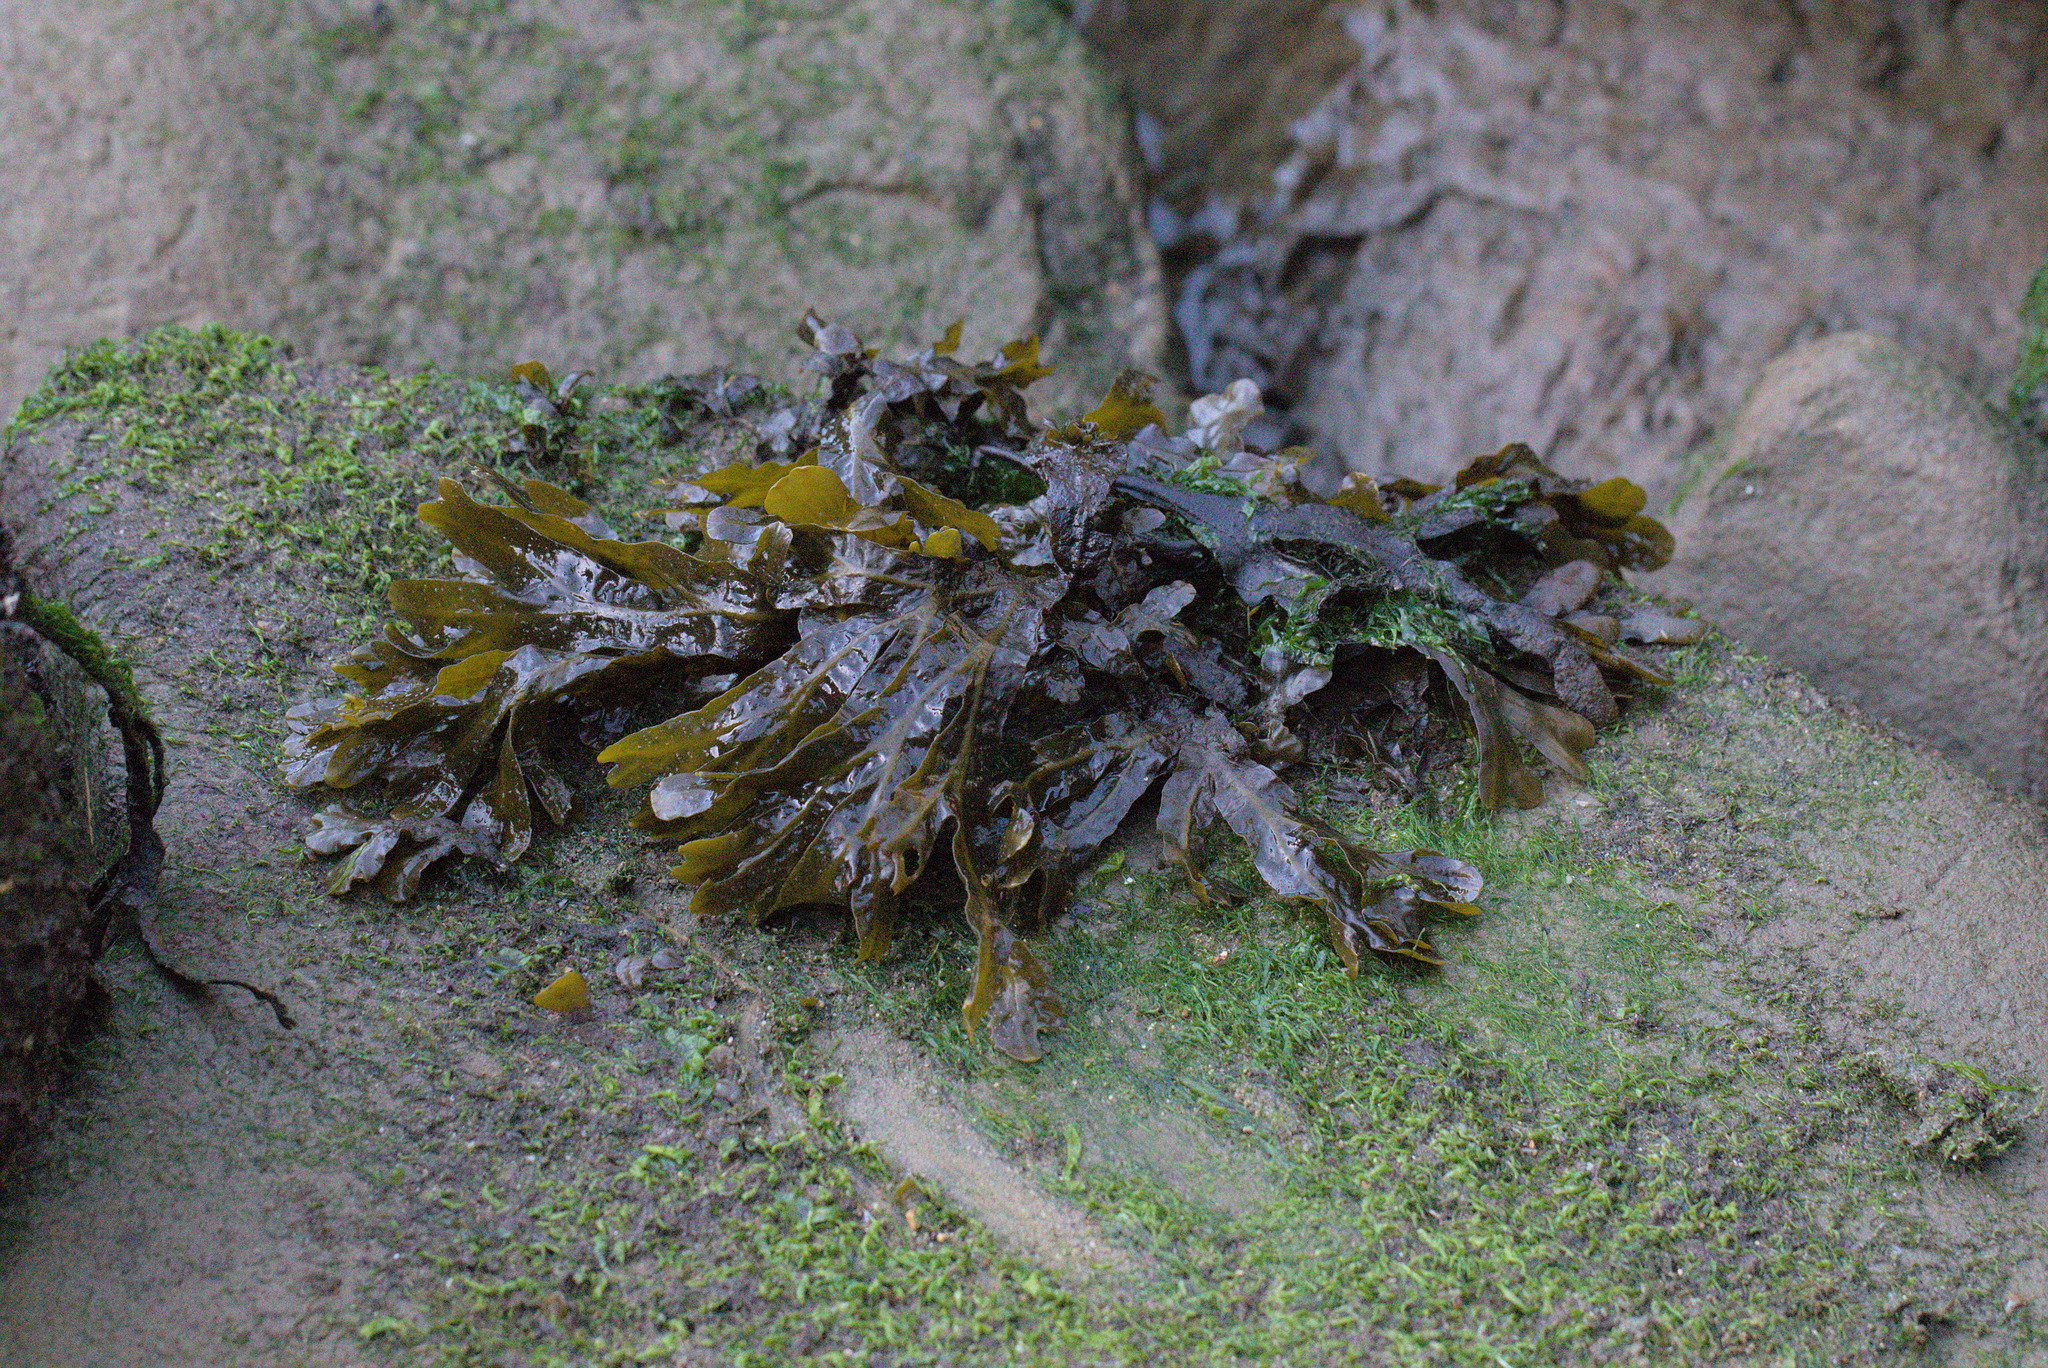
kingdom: Chromista
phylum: Ochrophyta
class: Phaeophyceae
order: Fucales
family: Fucaceae
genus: Fucus
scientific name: Fucus distichus
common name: Rockweed
